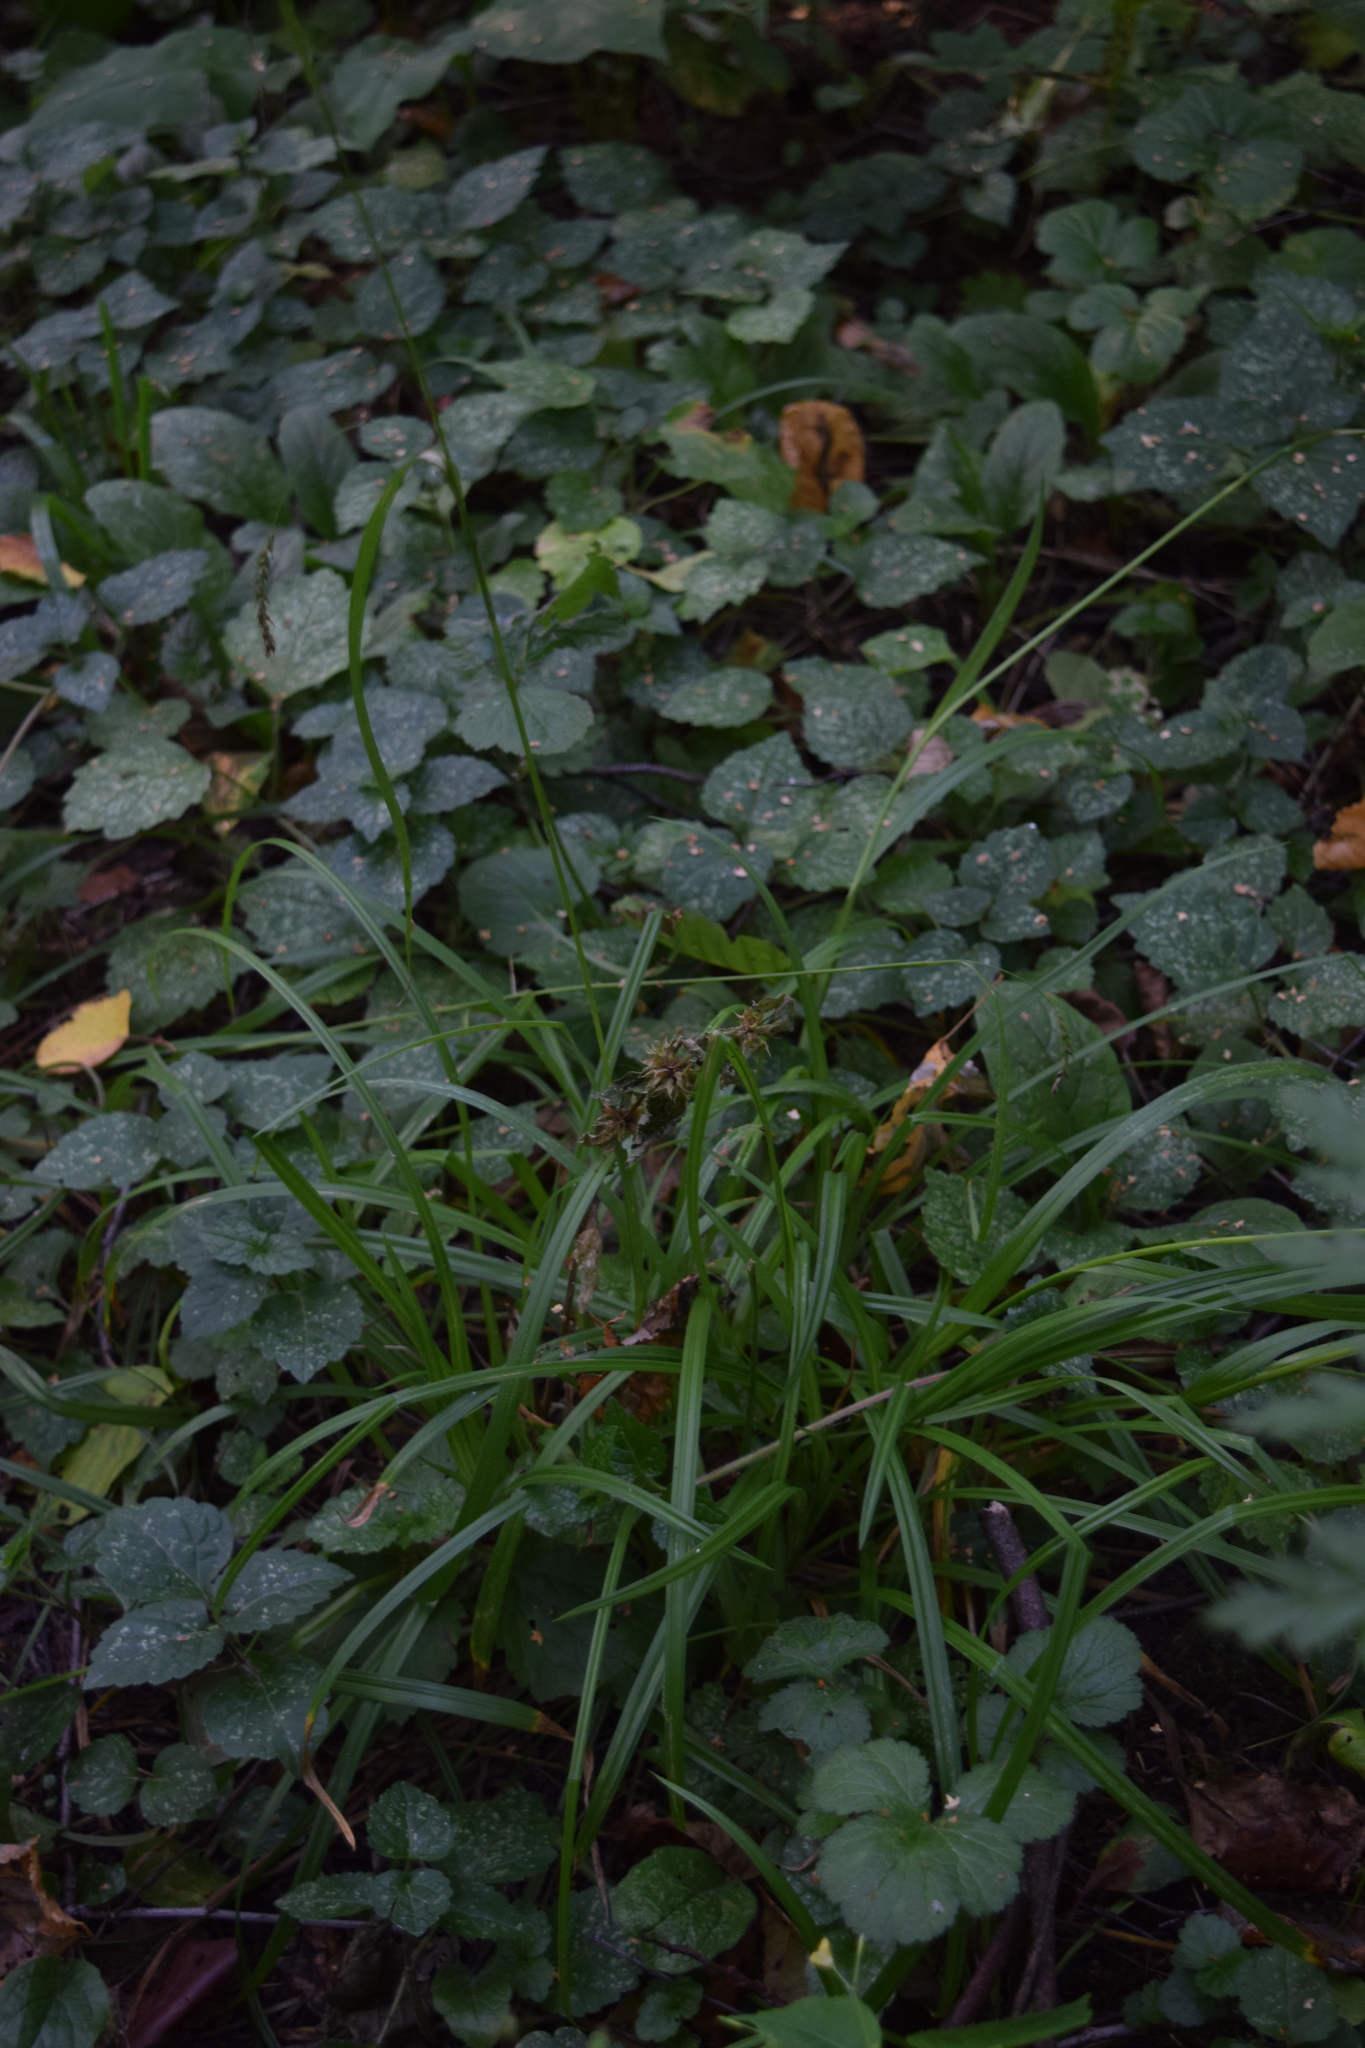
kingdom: Plantae
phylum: Tracheophyta
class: Liliopsida
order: Poales
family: Cyperaceae
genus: Carex
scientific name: Carex sylvatica
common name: Wood-sedge
